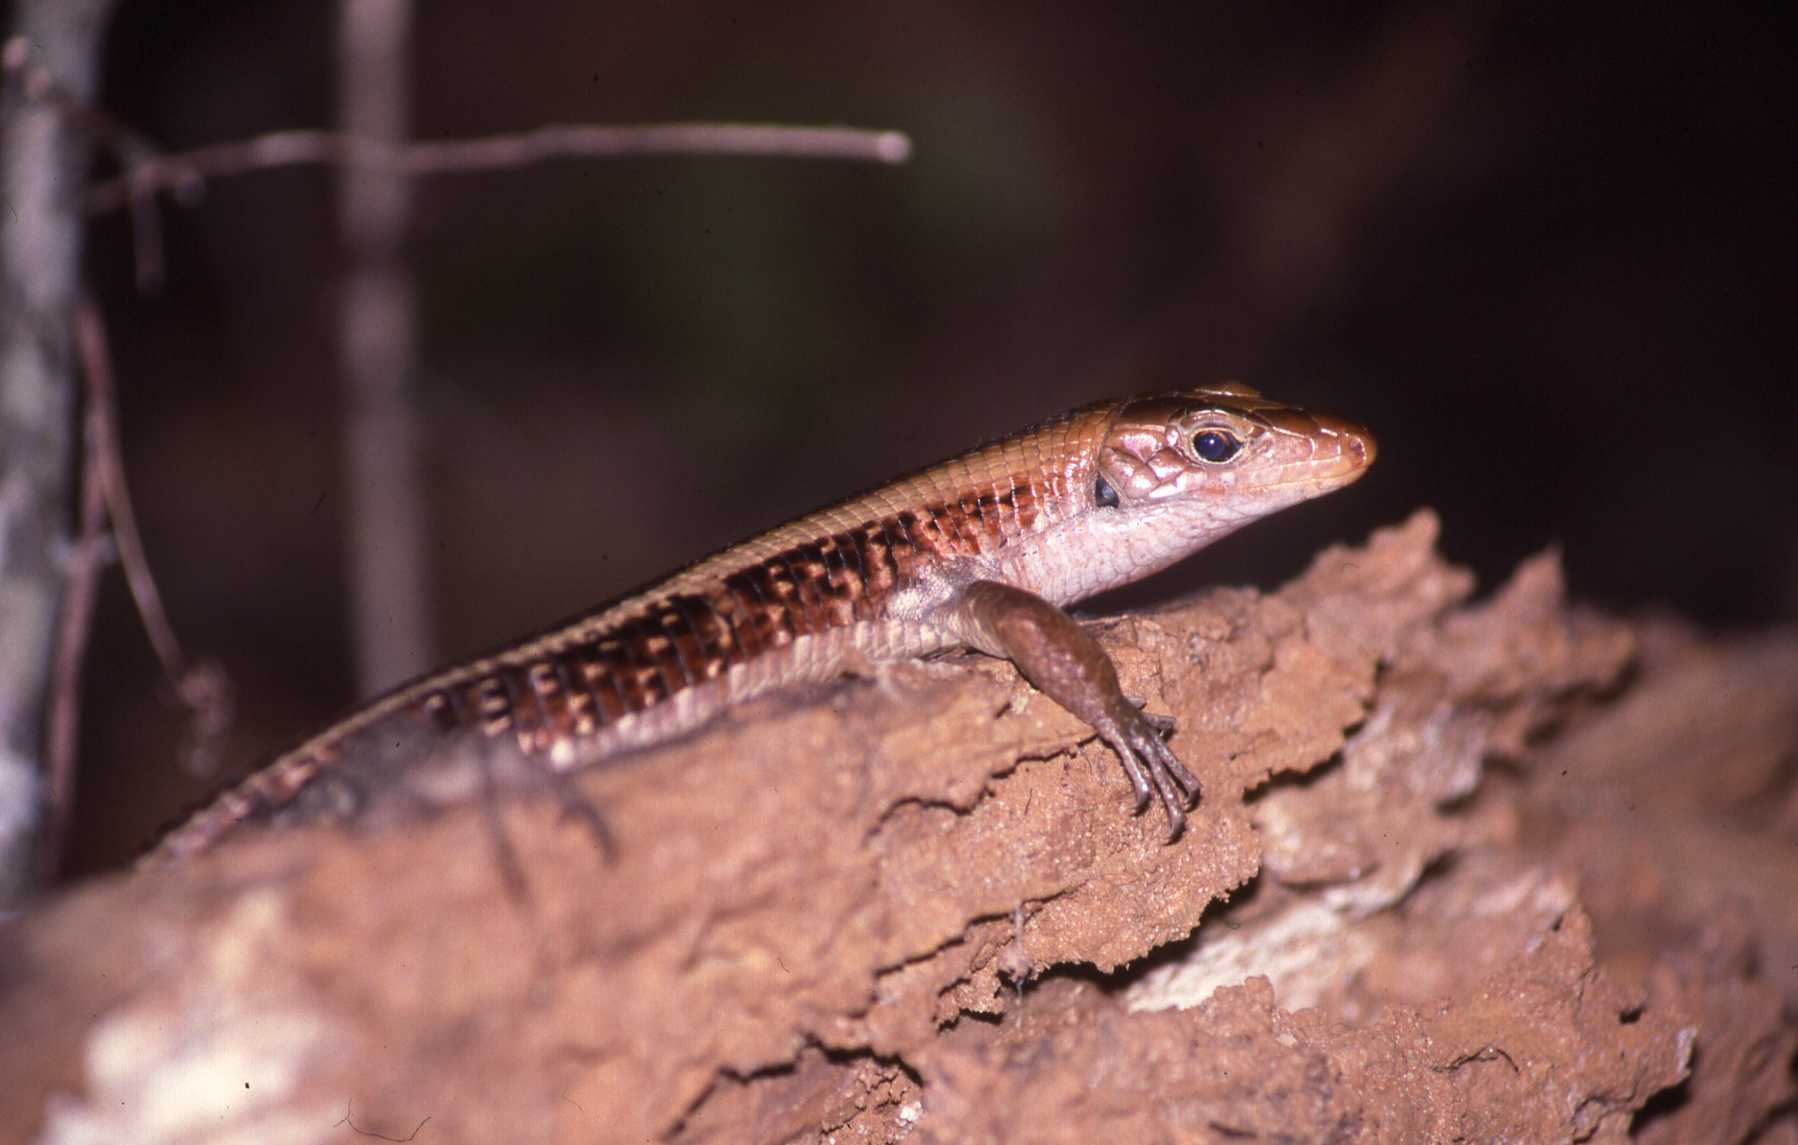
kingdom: Animalia
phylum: Chordata
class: Squamata
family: Gerrhosauridae
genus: Zonosaurus
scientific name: Zonosaurus laticaudatus
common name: Western girdled lizard
